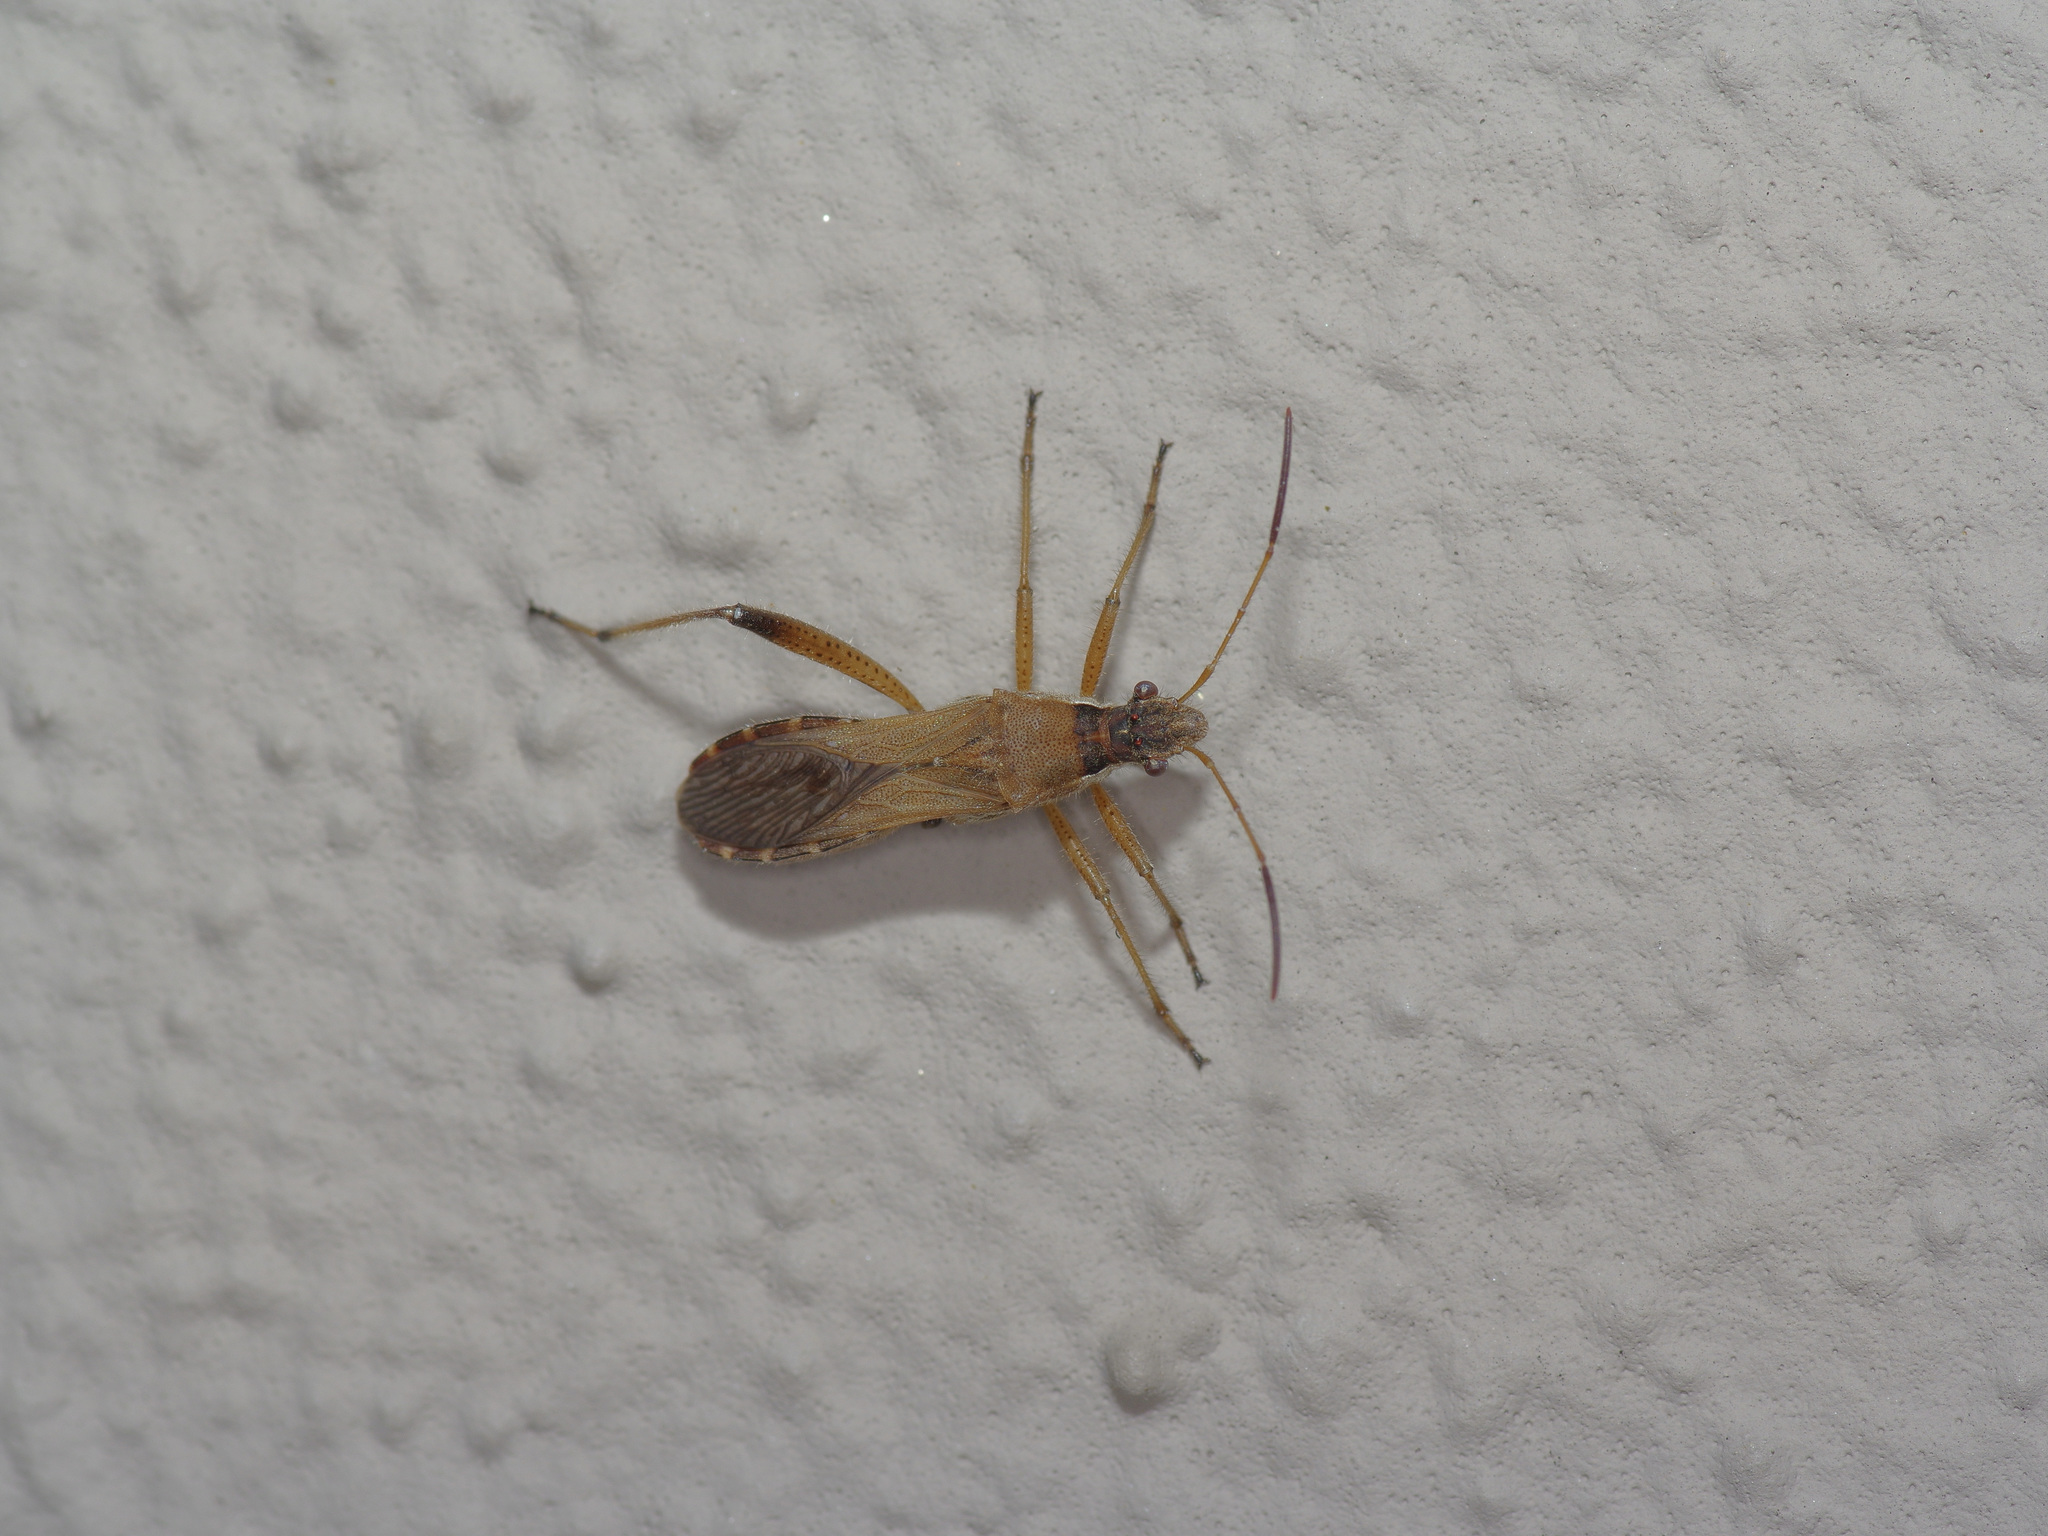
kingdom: Animalia
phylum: Arthropoda
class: Insecta
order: Hemiptera
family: Alydidae
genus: Alydus
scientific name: Alydus pilosulus
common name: Broad-headed bug
